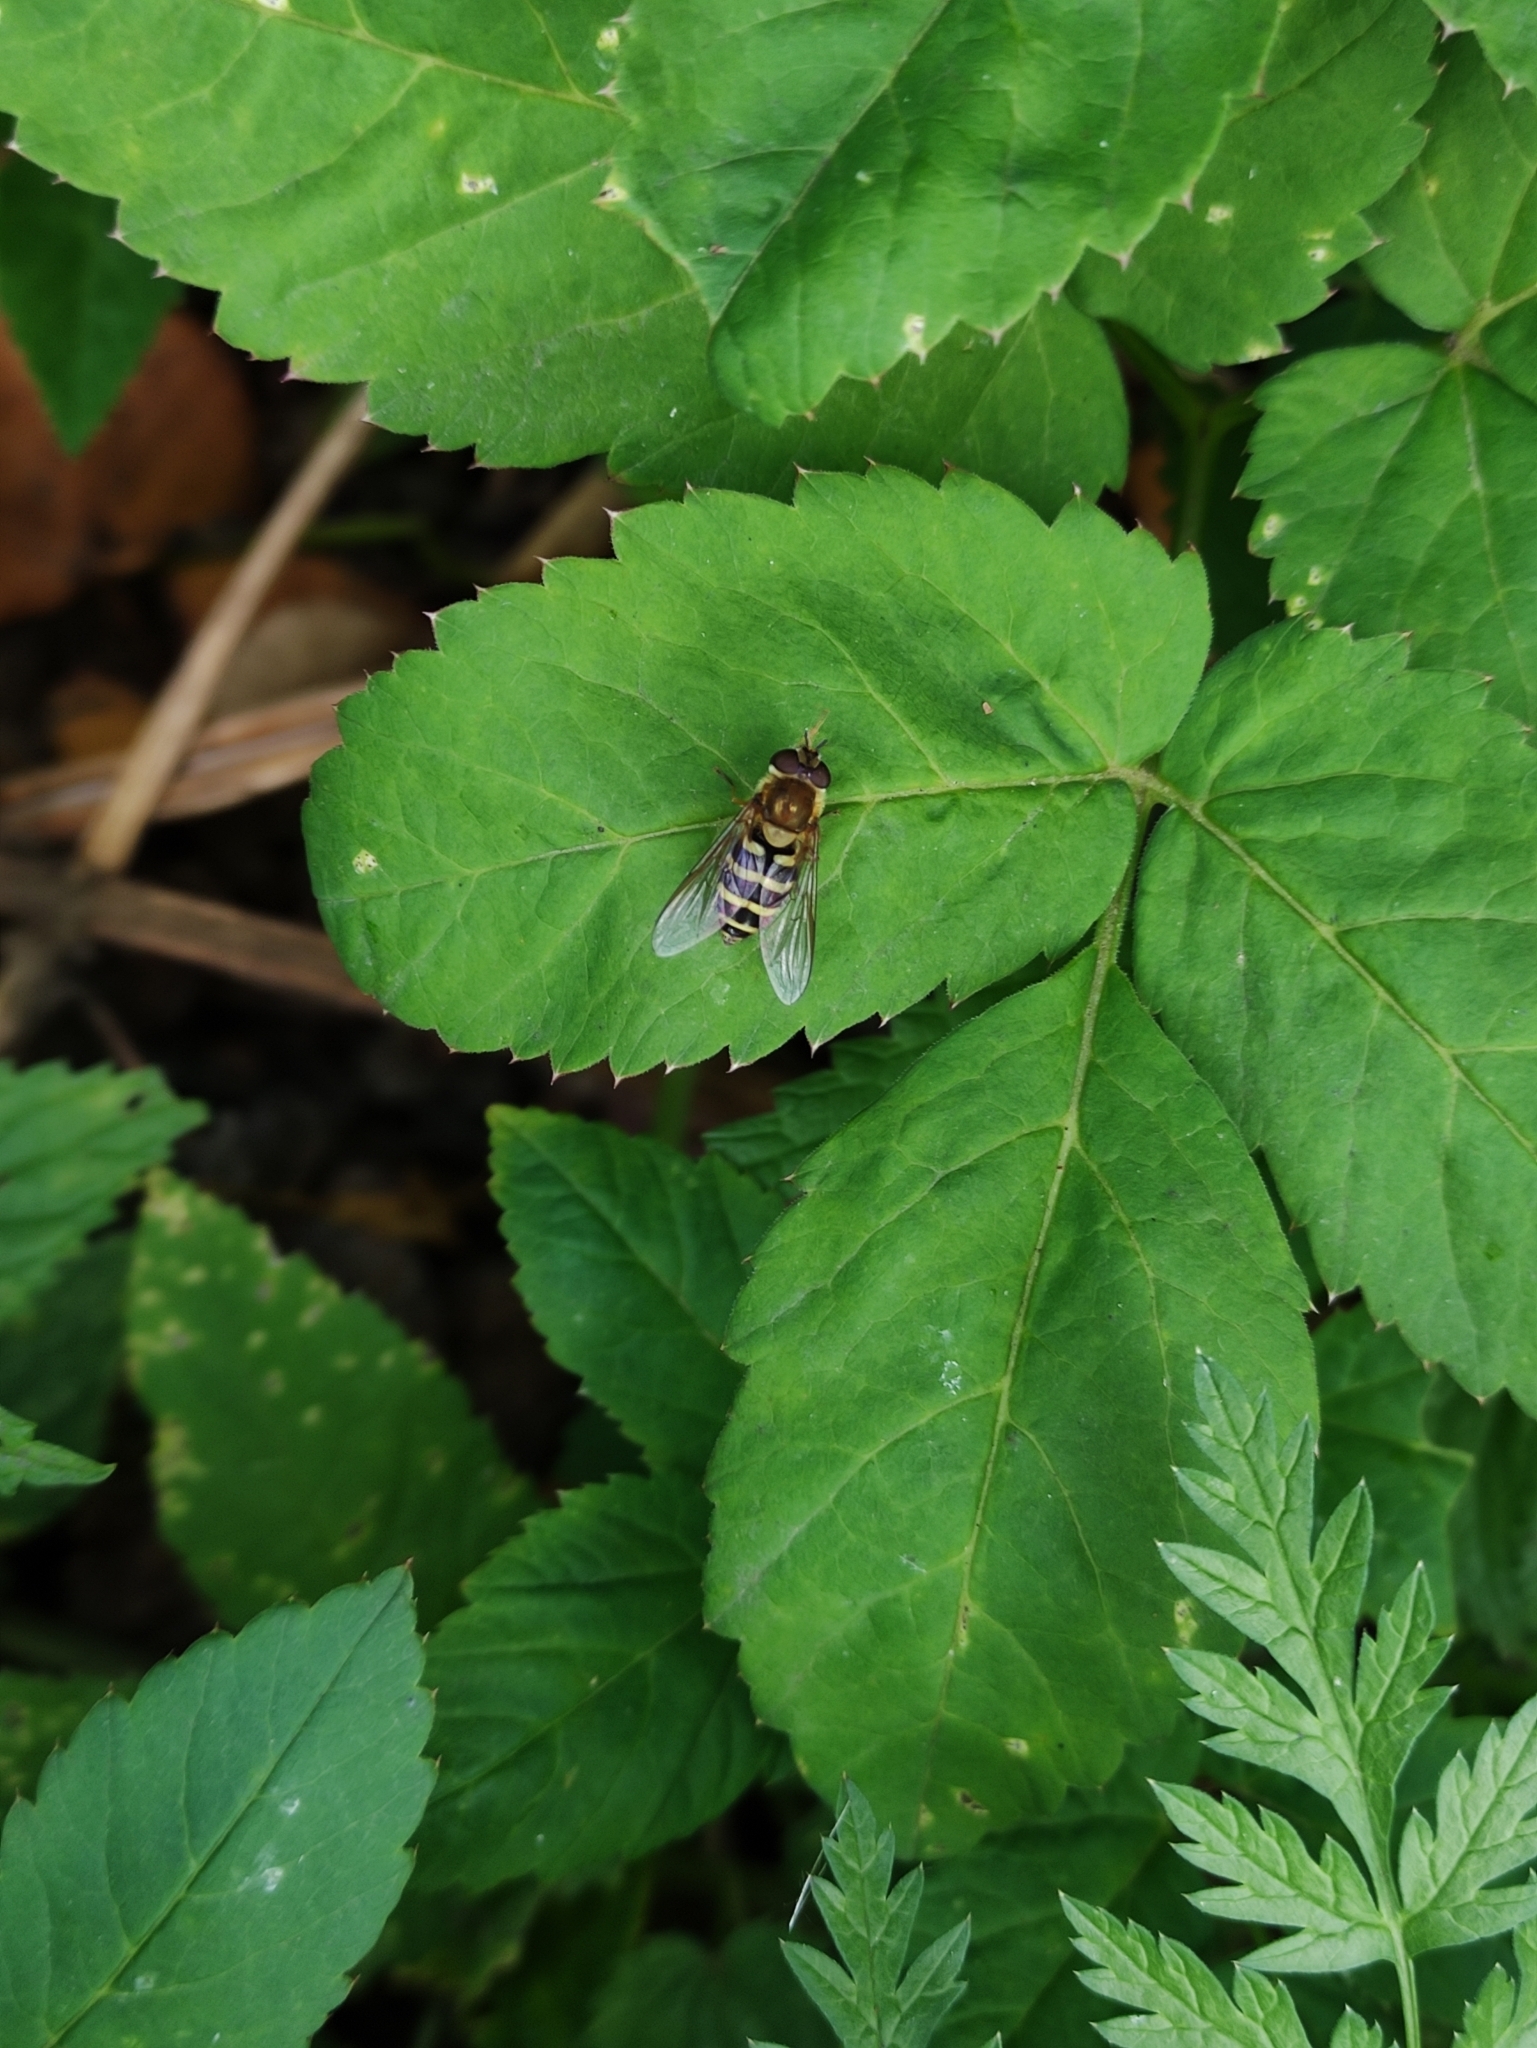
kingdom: Animalia
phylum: Arthropoda
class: Insecta
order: Diptera
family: Syrphidae
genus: Syrphus
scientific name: Syrphus
